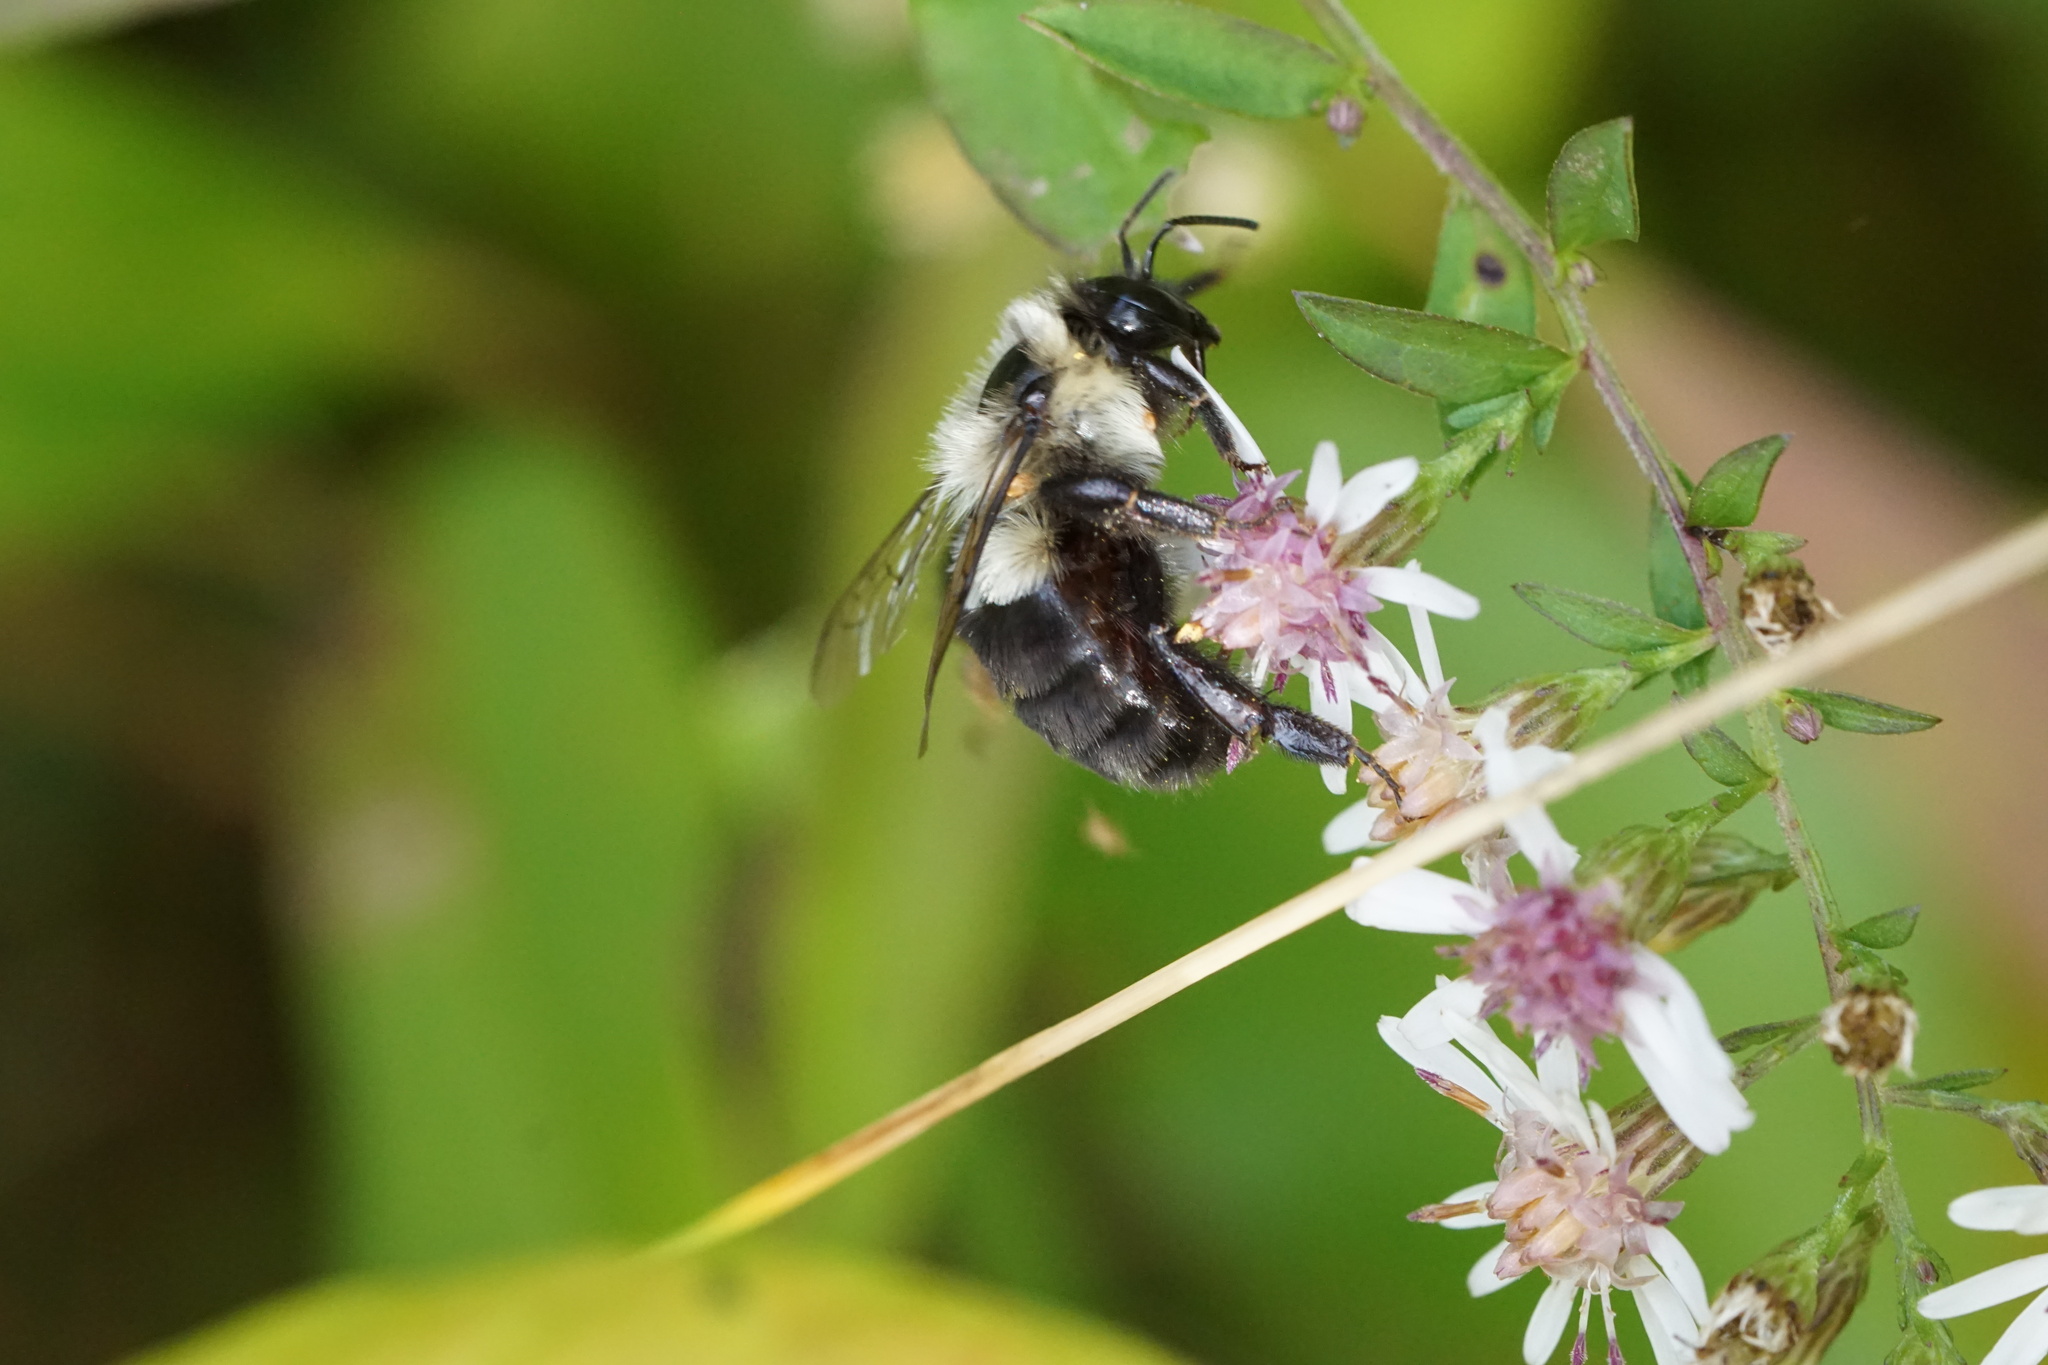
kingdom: Animalia
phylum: Arthropoda
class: Insecta
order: Hymenoptera
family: Apidae
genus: Bombus
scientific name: Bombus impatiens
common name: Common eastern bumble bee
